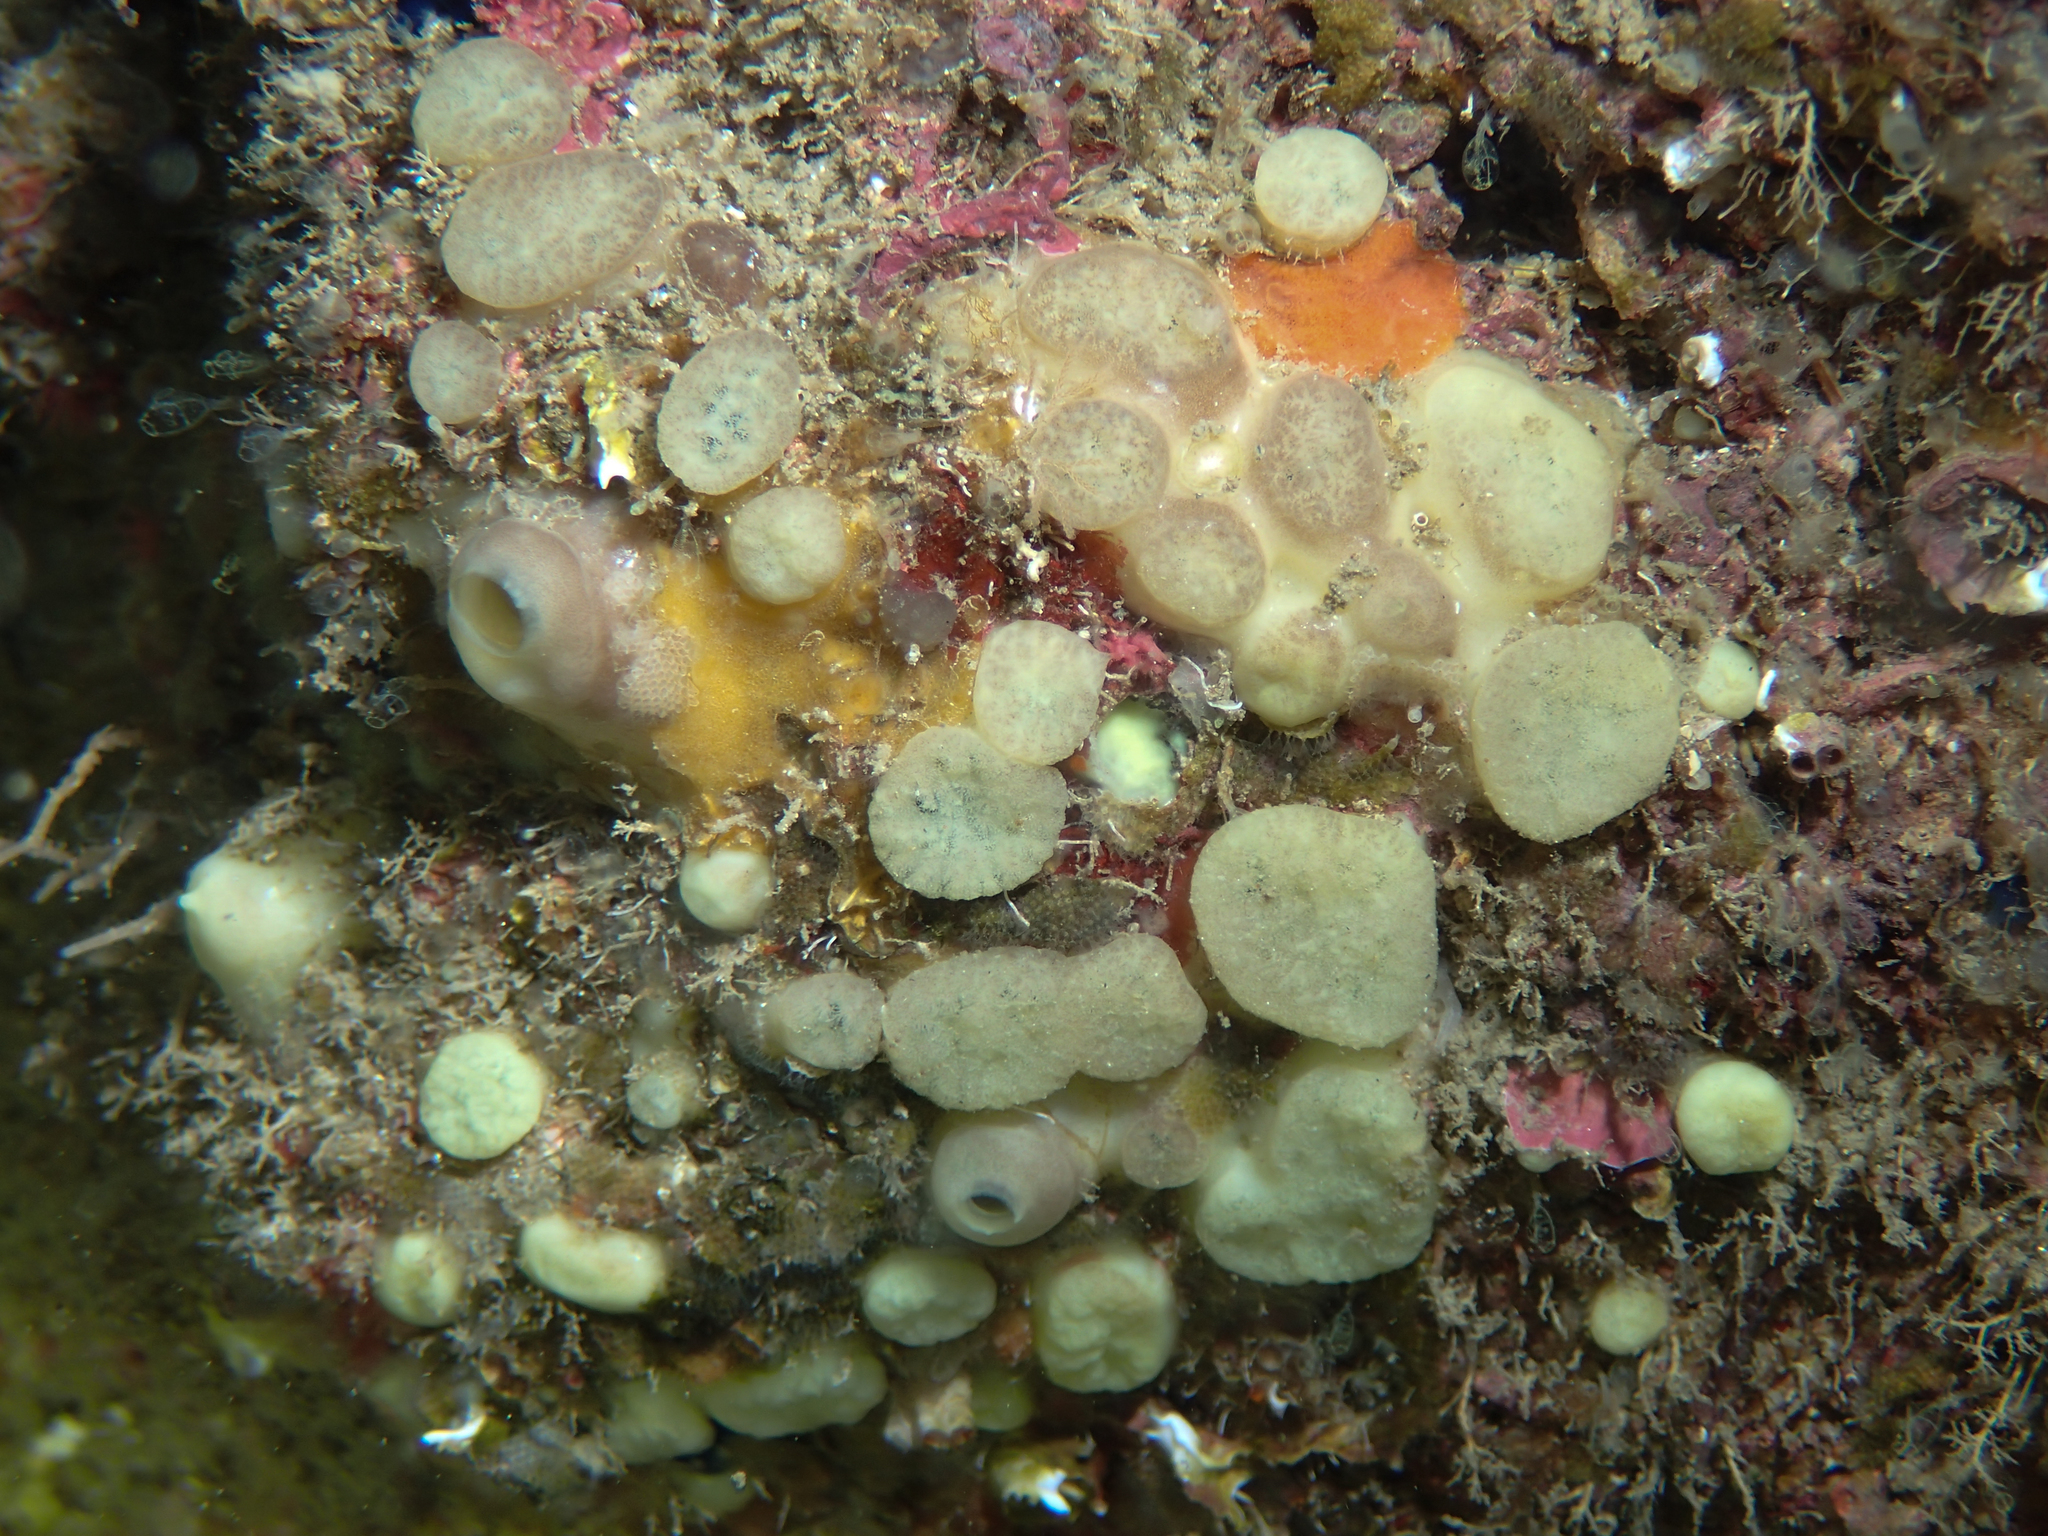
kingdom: Animalia
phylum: Porifera
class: Demospongiae
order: Clionaida
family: Clionaidae
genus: Cliona
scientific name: Cliona viridis
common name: Green boring sponge
